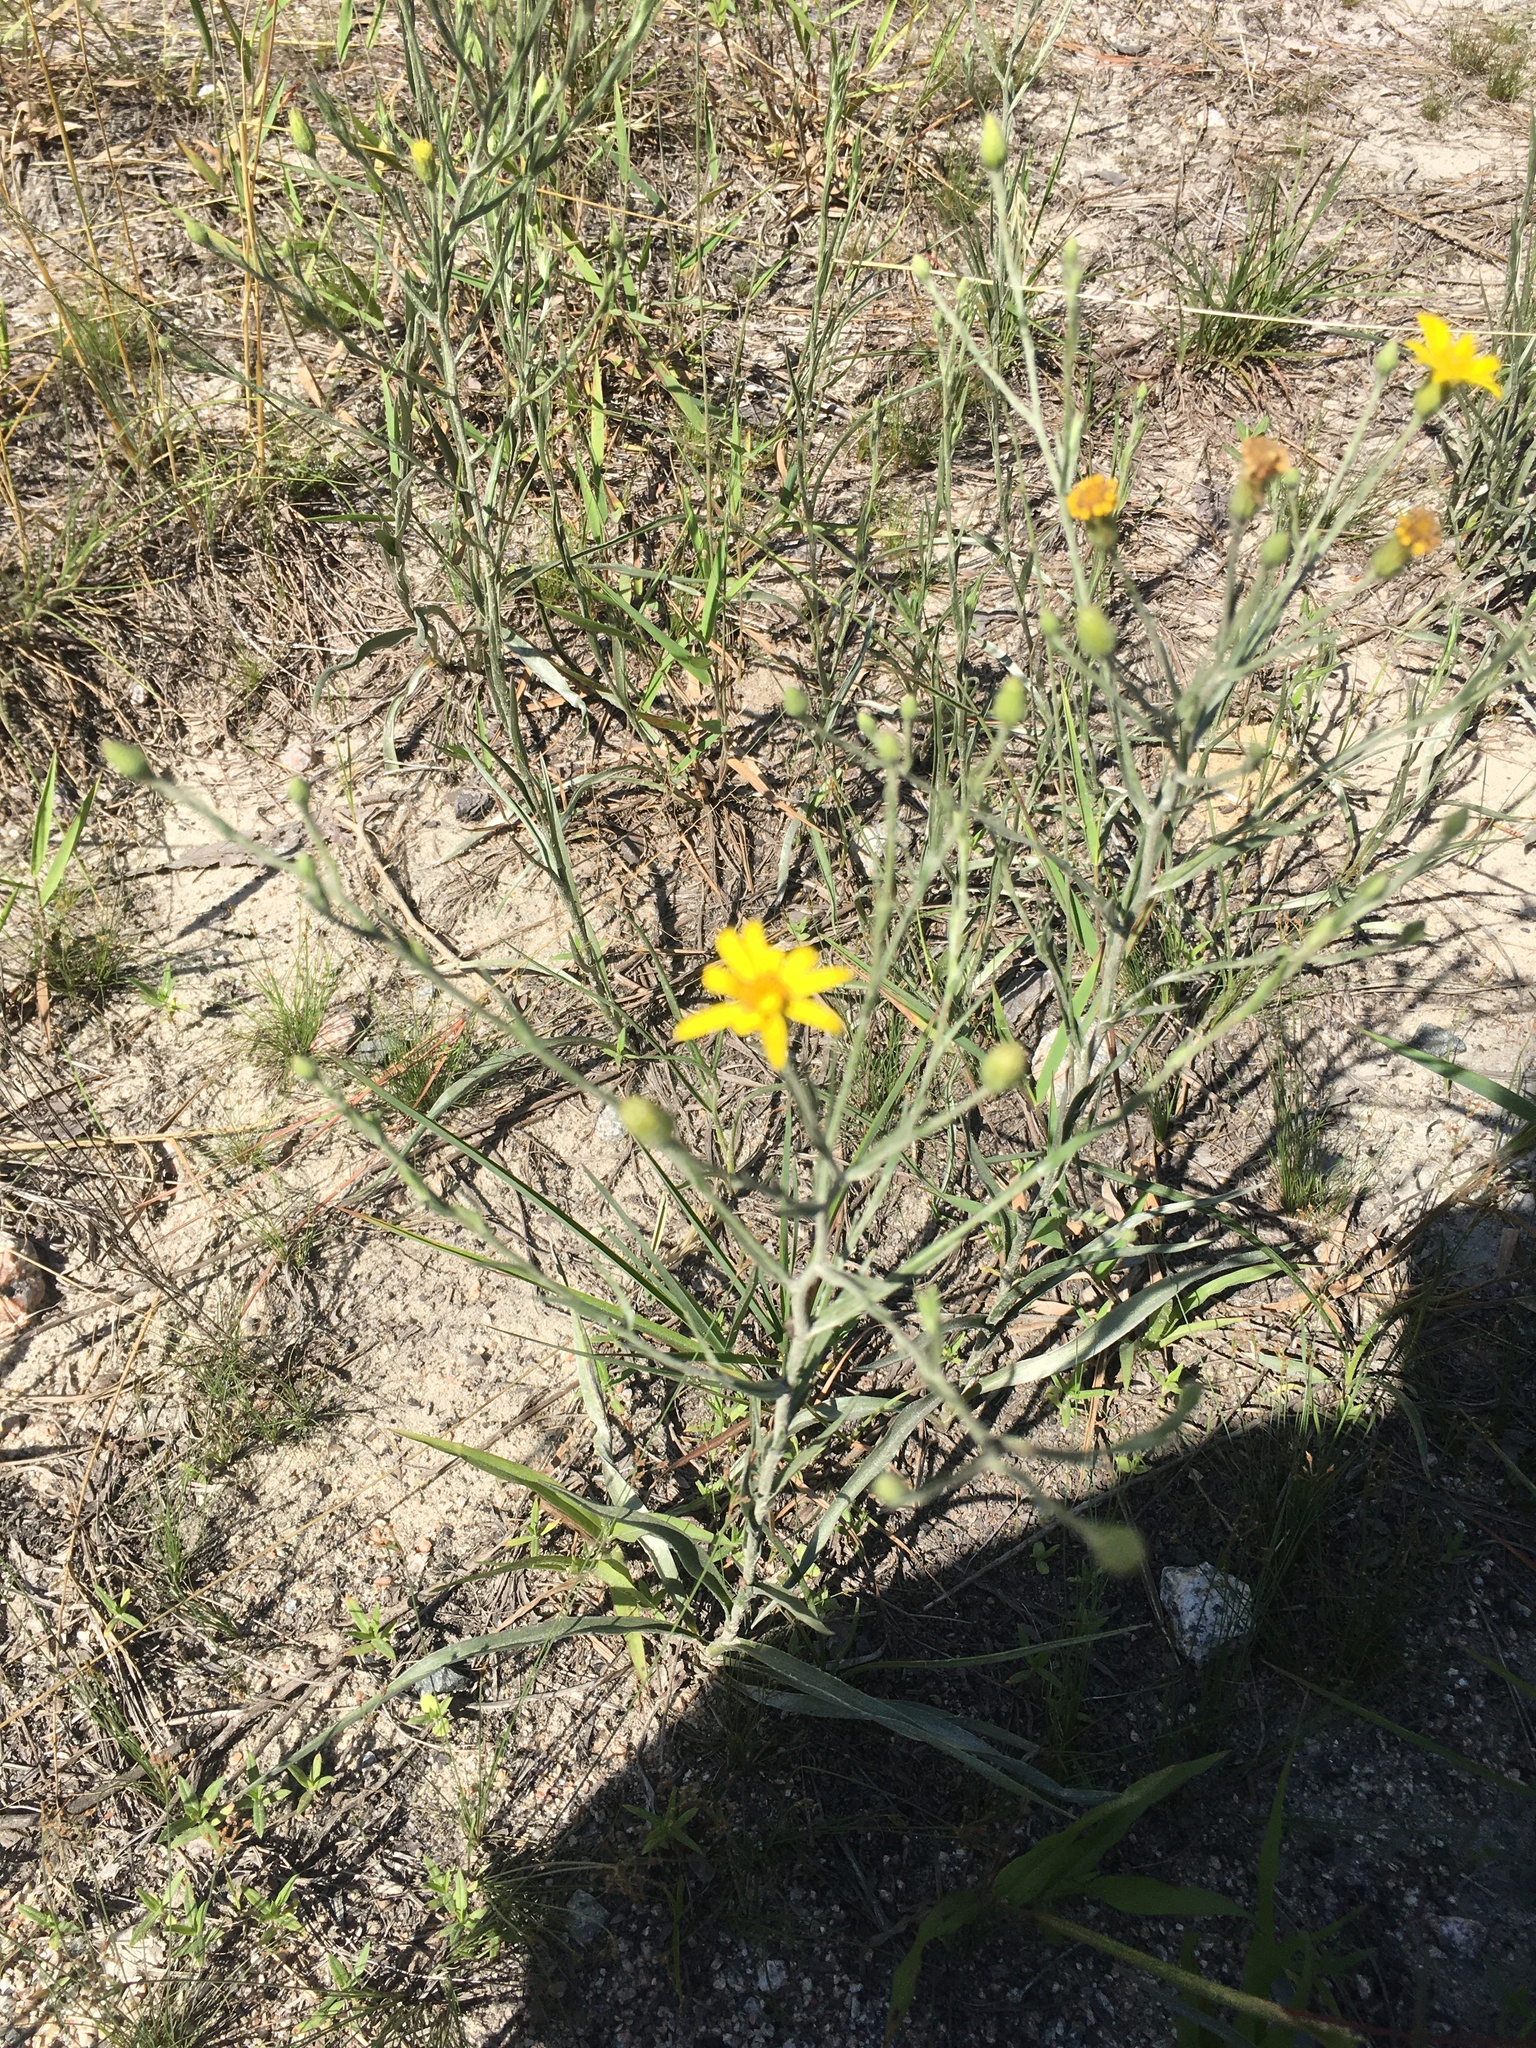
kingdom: Plantae
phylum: Tracheophyta
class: Magnoliopsida
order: Asterales
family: Asteraceae
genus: Pityopsis
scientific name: Pityopsis graminifolia
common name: Grass-leaf golden-aster
